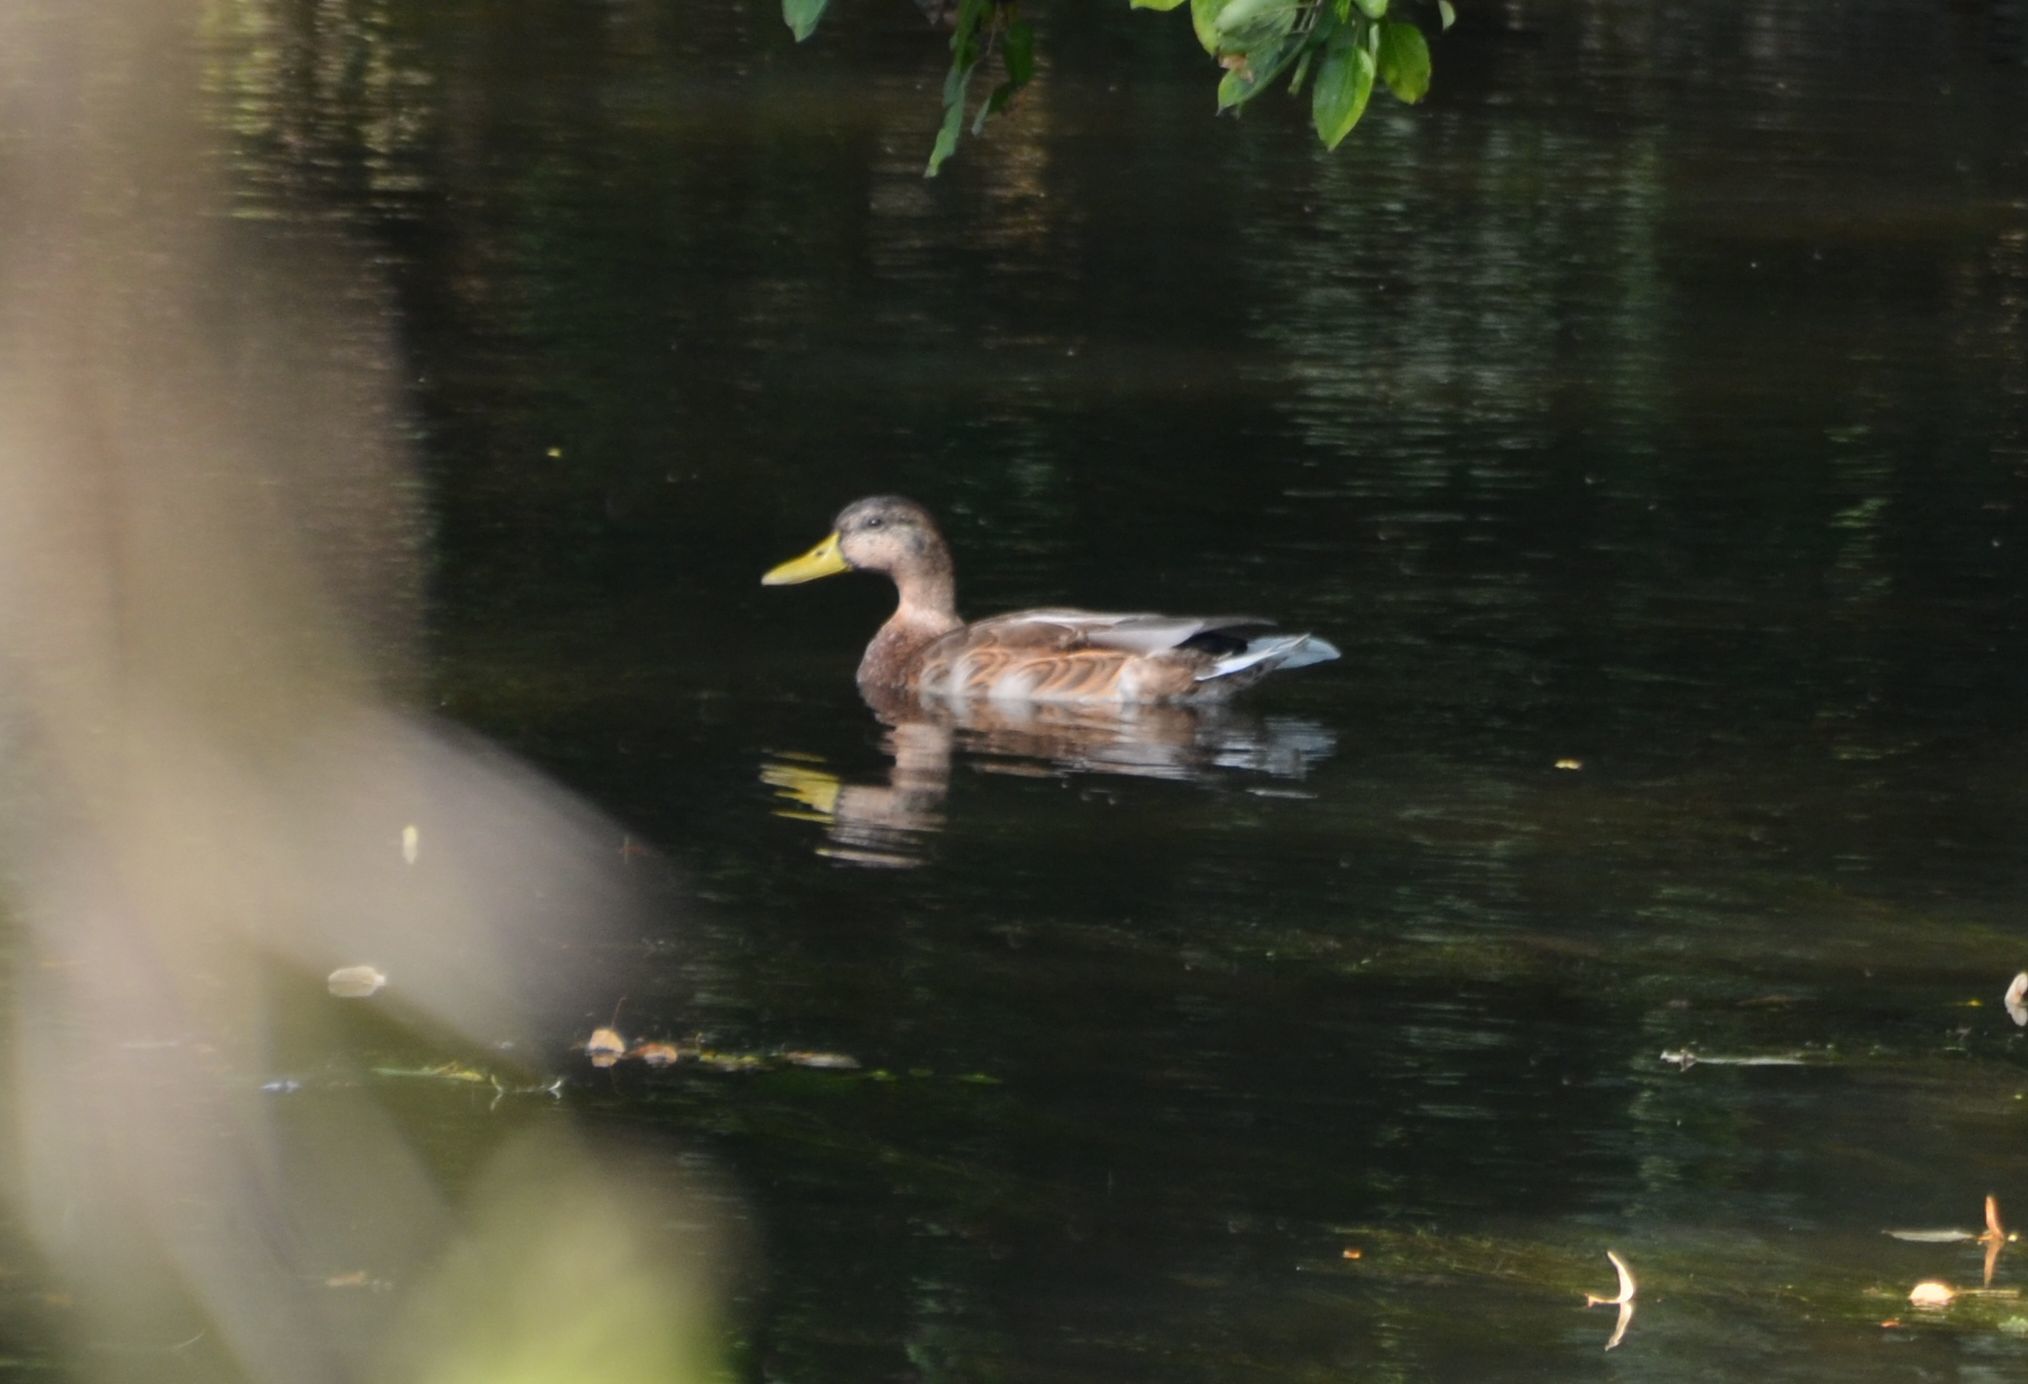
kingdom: Animalia
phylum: Chordata
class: Aves
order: Anseriformes
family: Anatidae
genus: Anas
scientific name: Anas platyrhynchos
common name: Mallard
